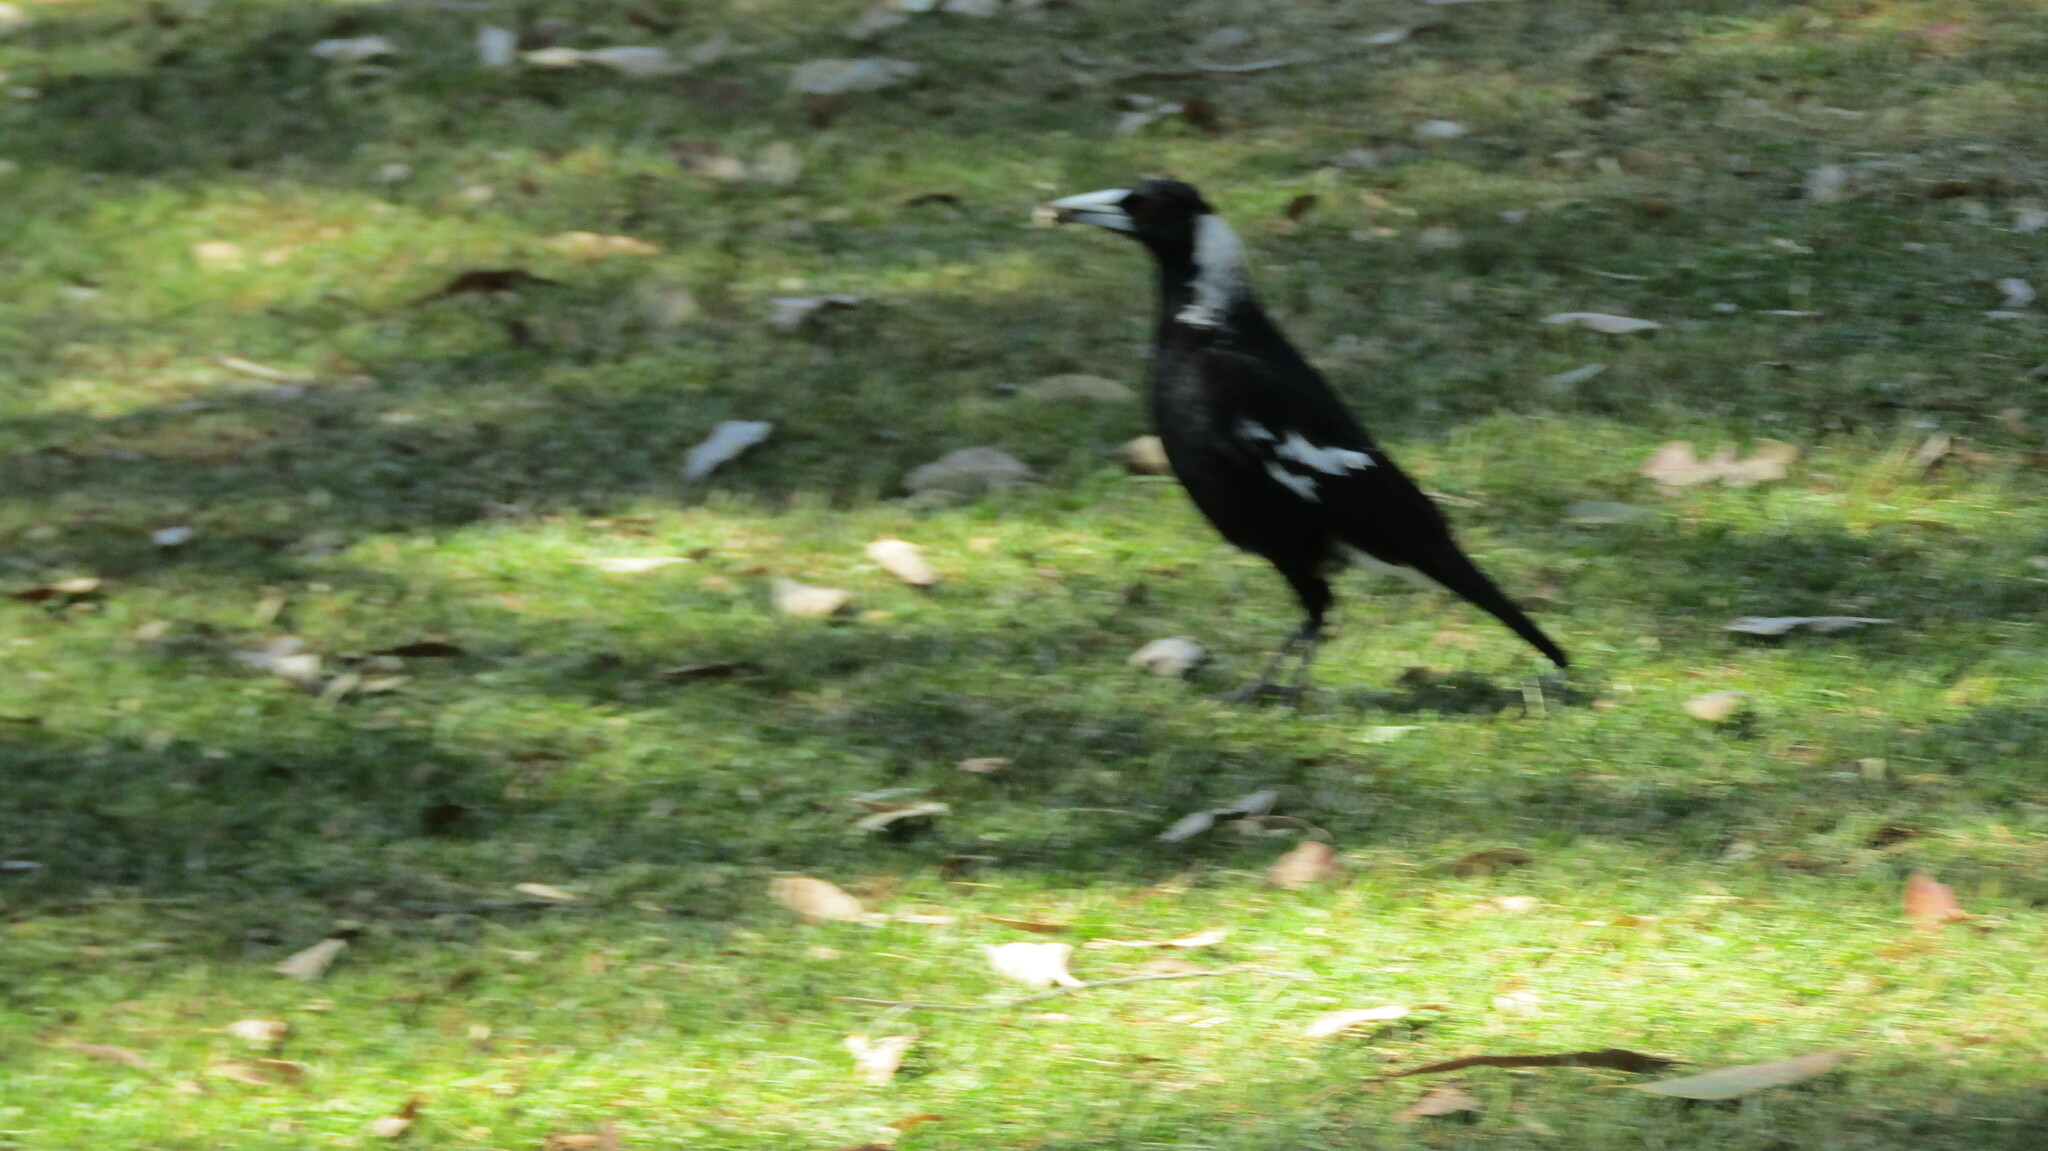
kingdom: Animalia
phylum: Chordata
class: Aves
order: Passeriformes
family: Cracticidae
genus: Gymnorhina
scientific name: Gymnorhina tibicen
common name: Australian magpie
